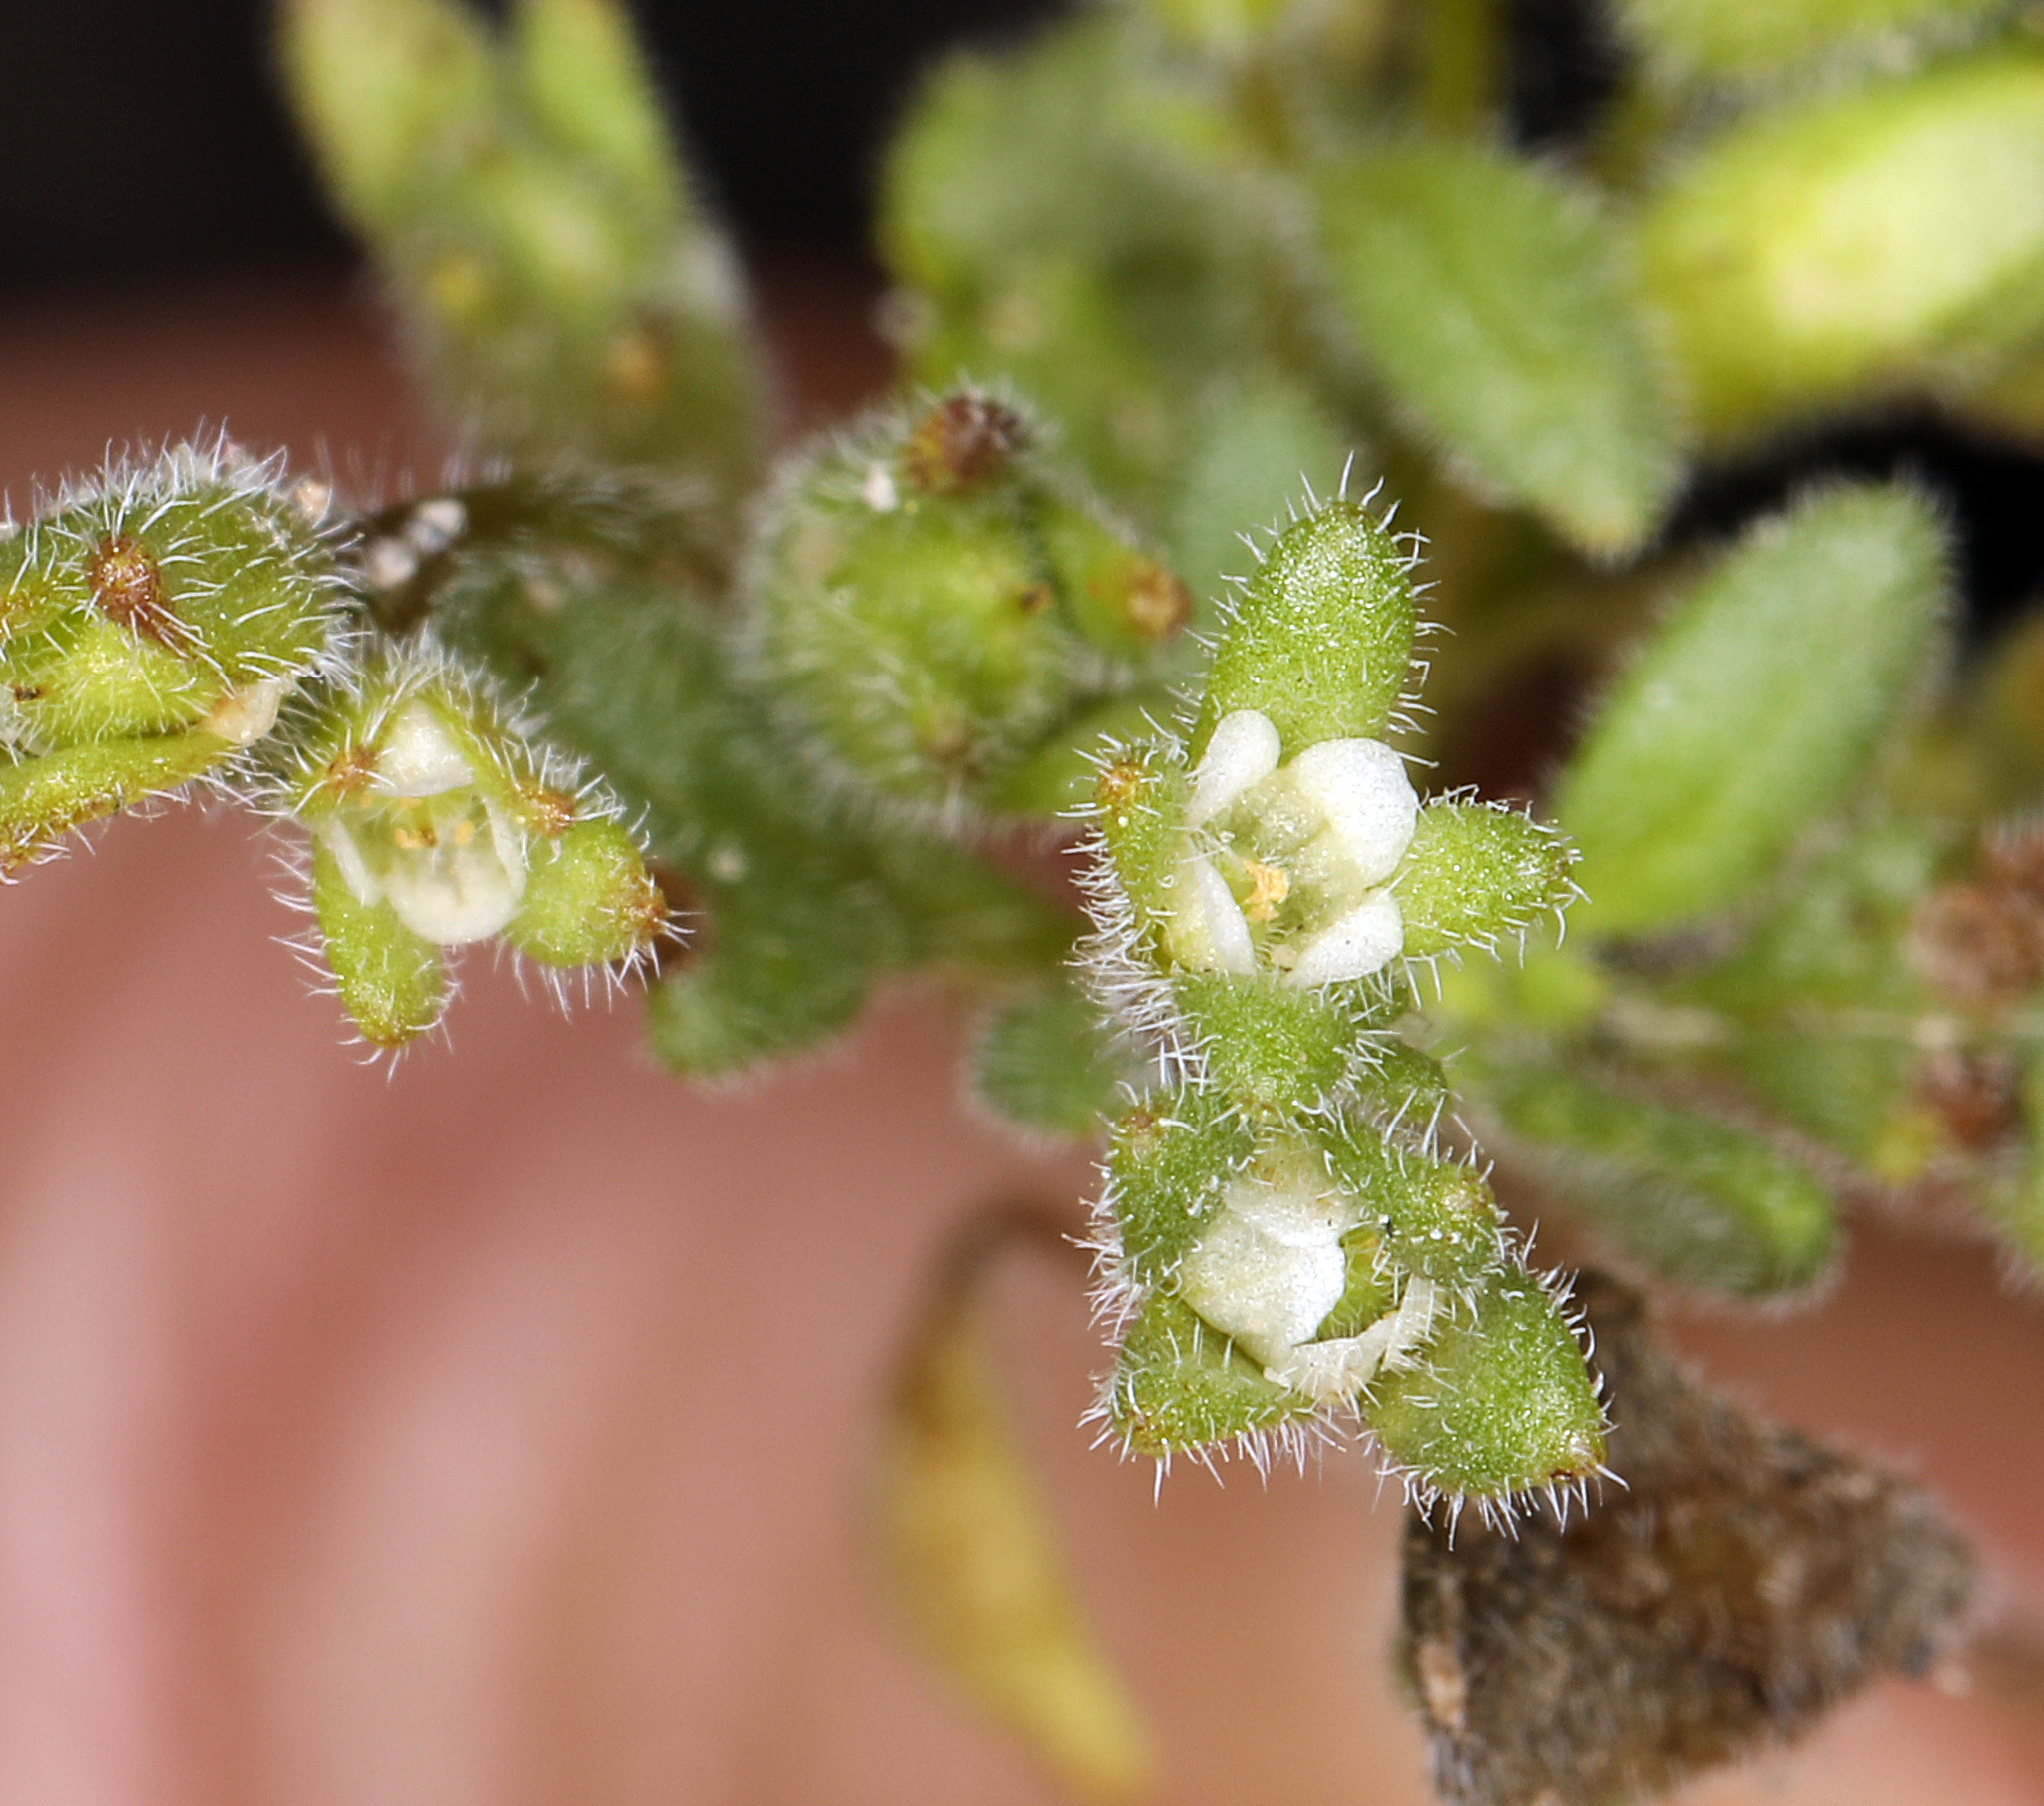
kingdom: Plantae
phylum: Tracheophyta
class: Magnoliopsida
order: Boraginales
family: Hydrophyllaceae
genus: Phacelia
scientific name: Phacelia tetramera
